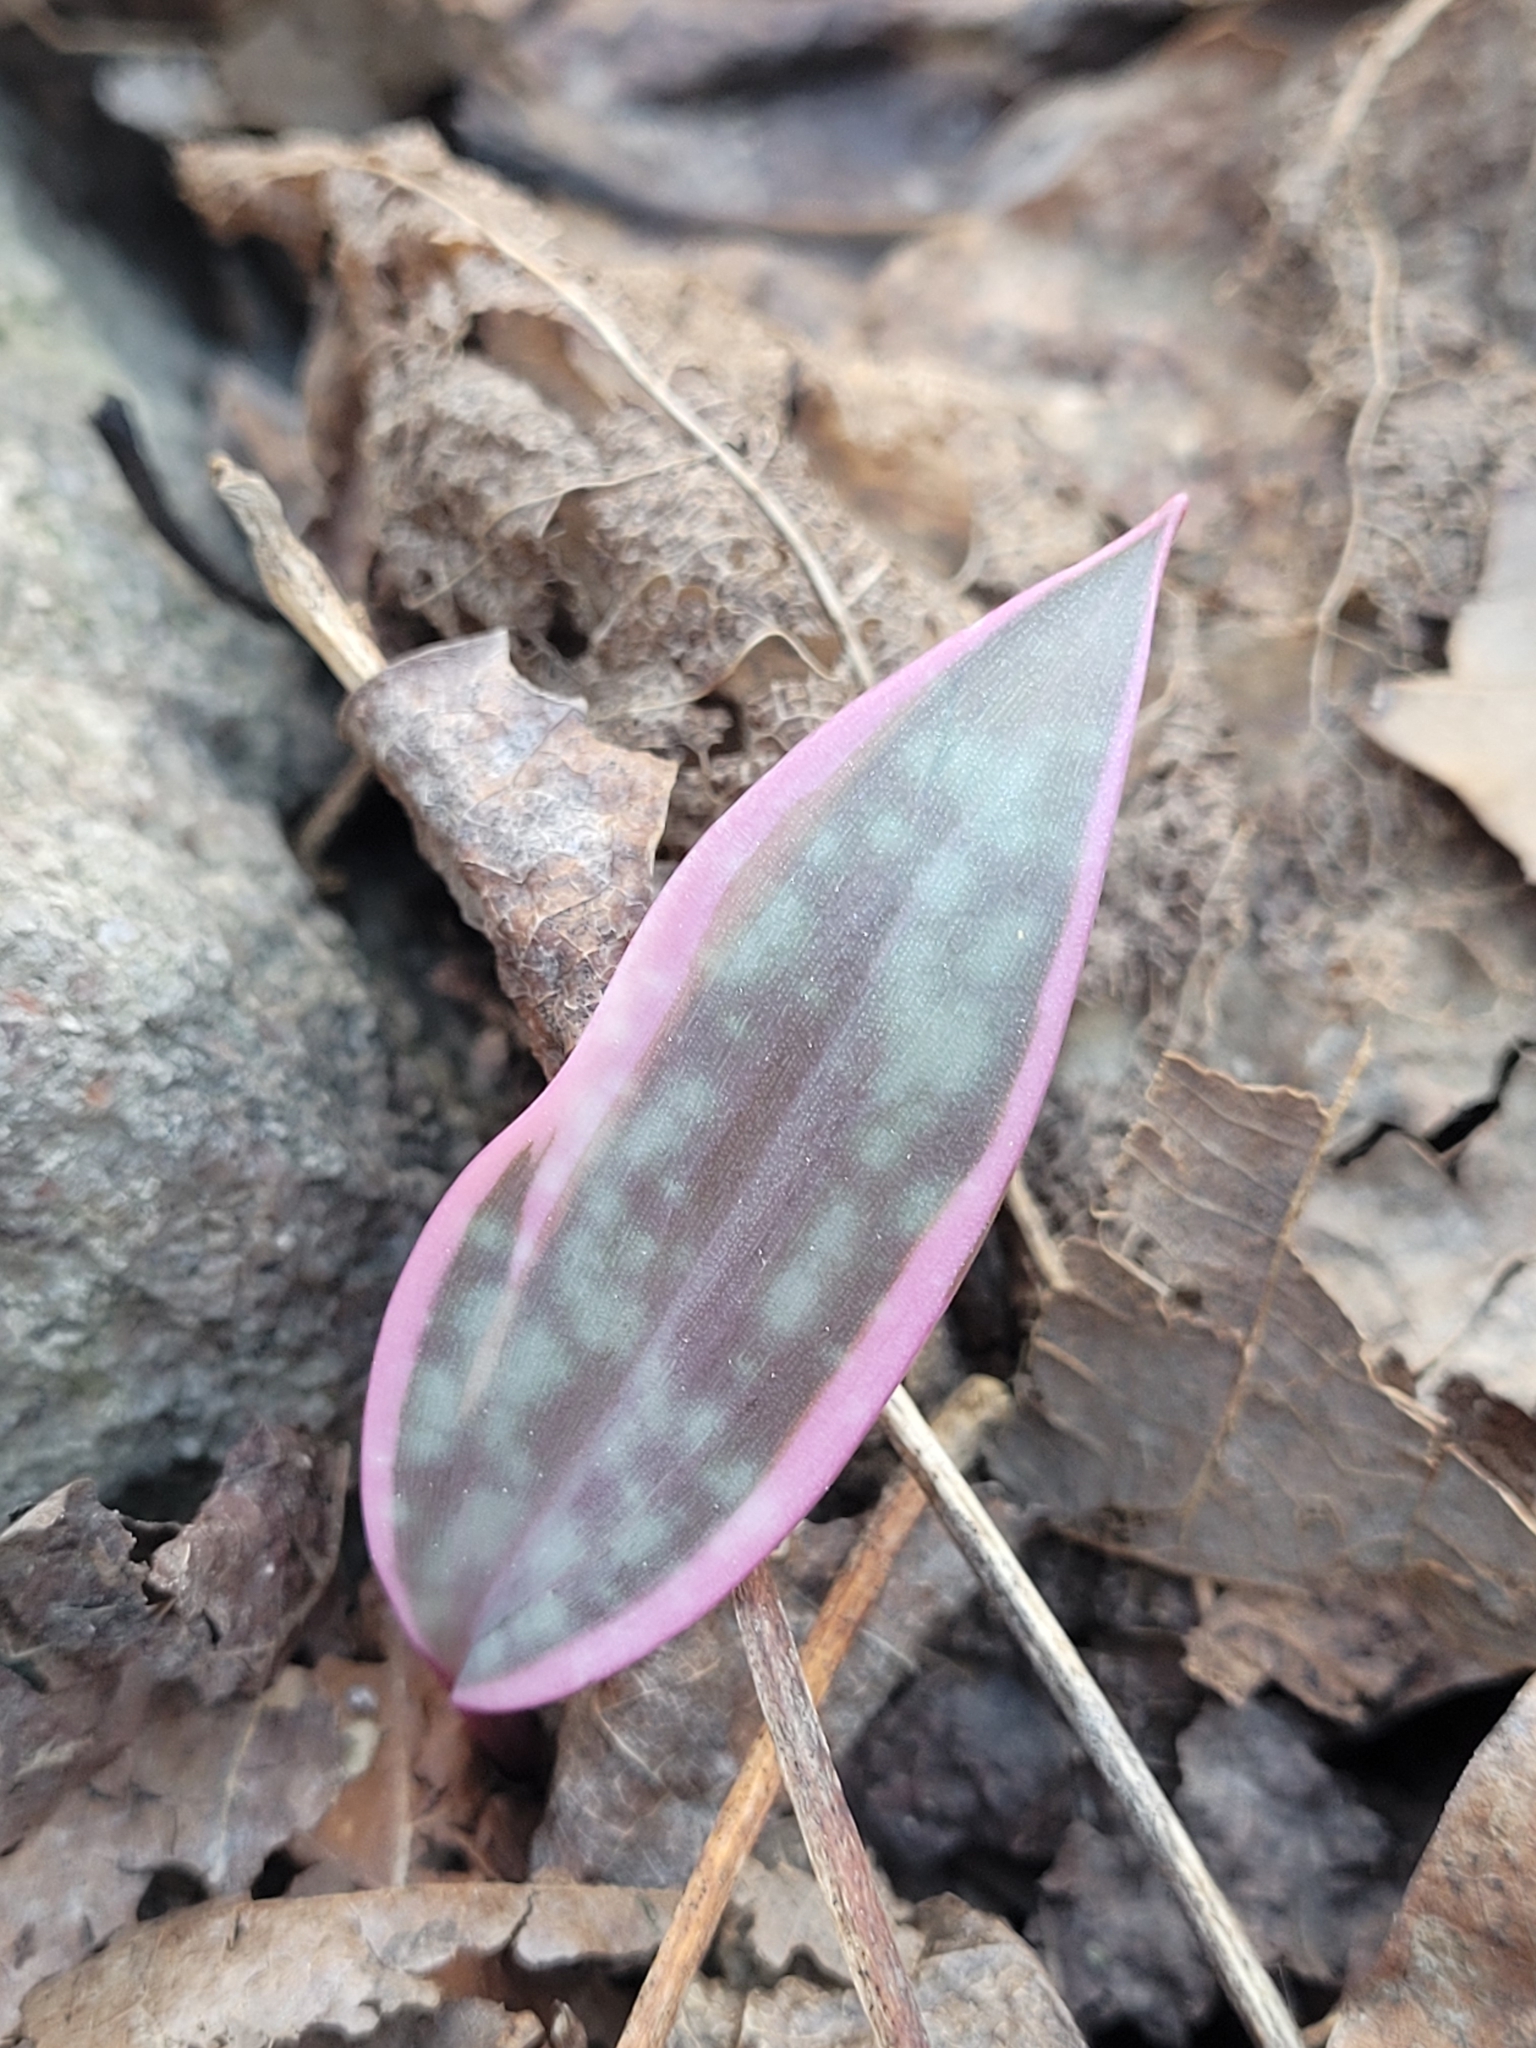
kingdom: Plantae
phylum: Tracheophyta
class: Liliopsida
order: Liliales
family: Liliaceae
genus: Erythronium
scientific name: Erythronium umbilicatum
